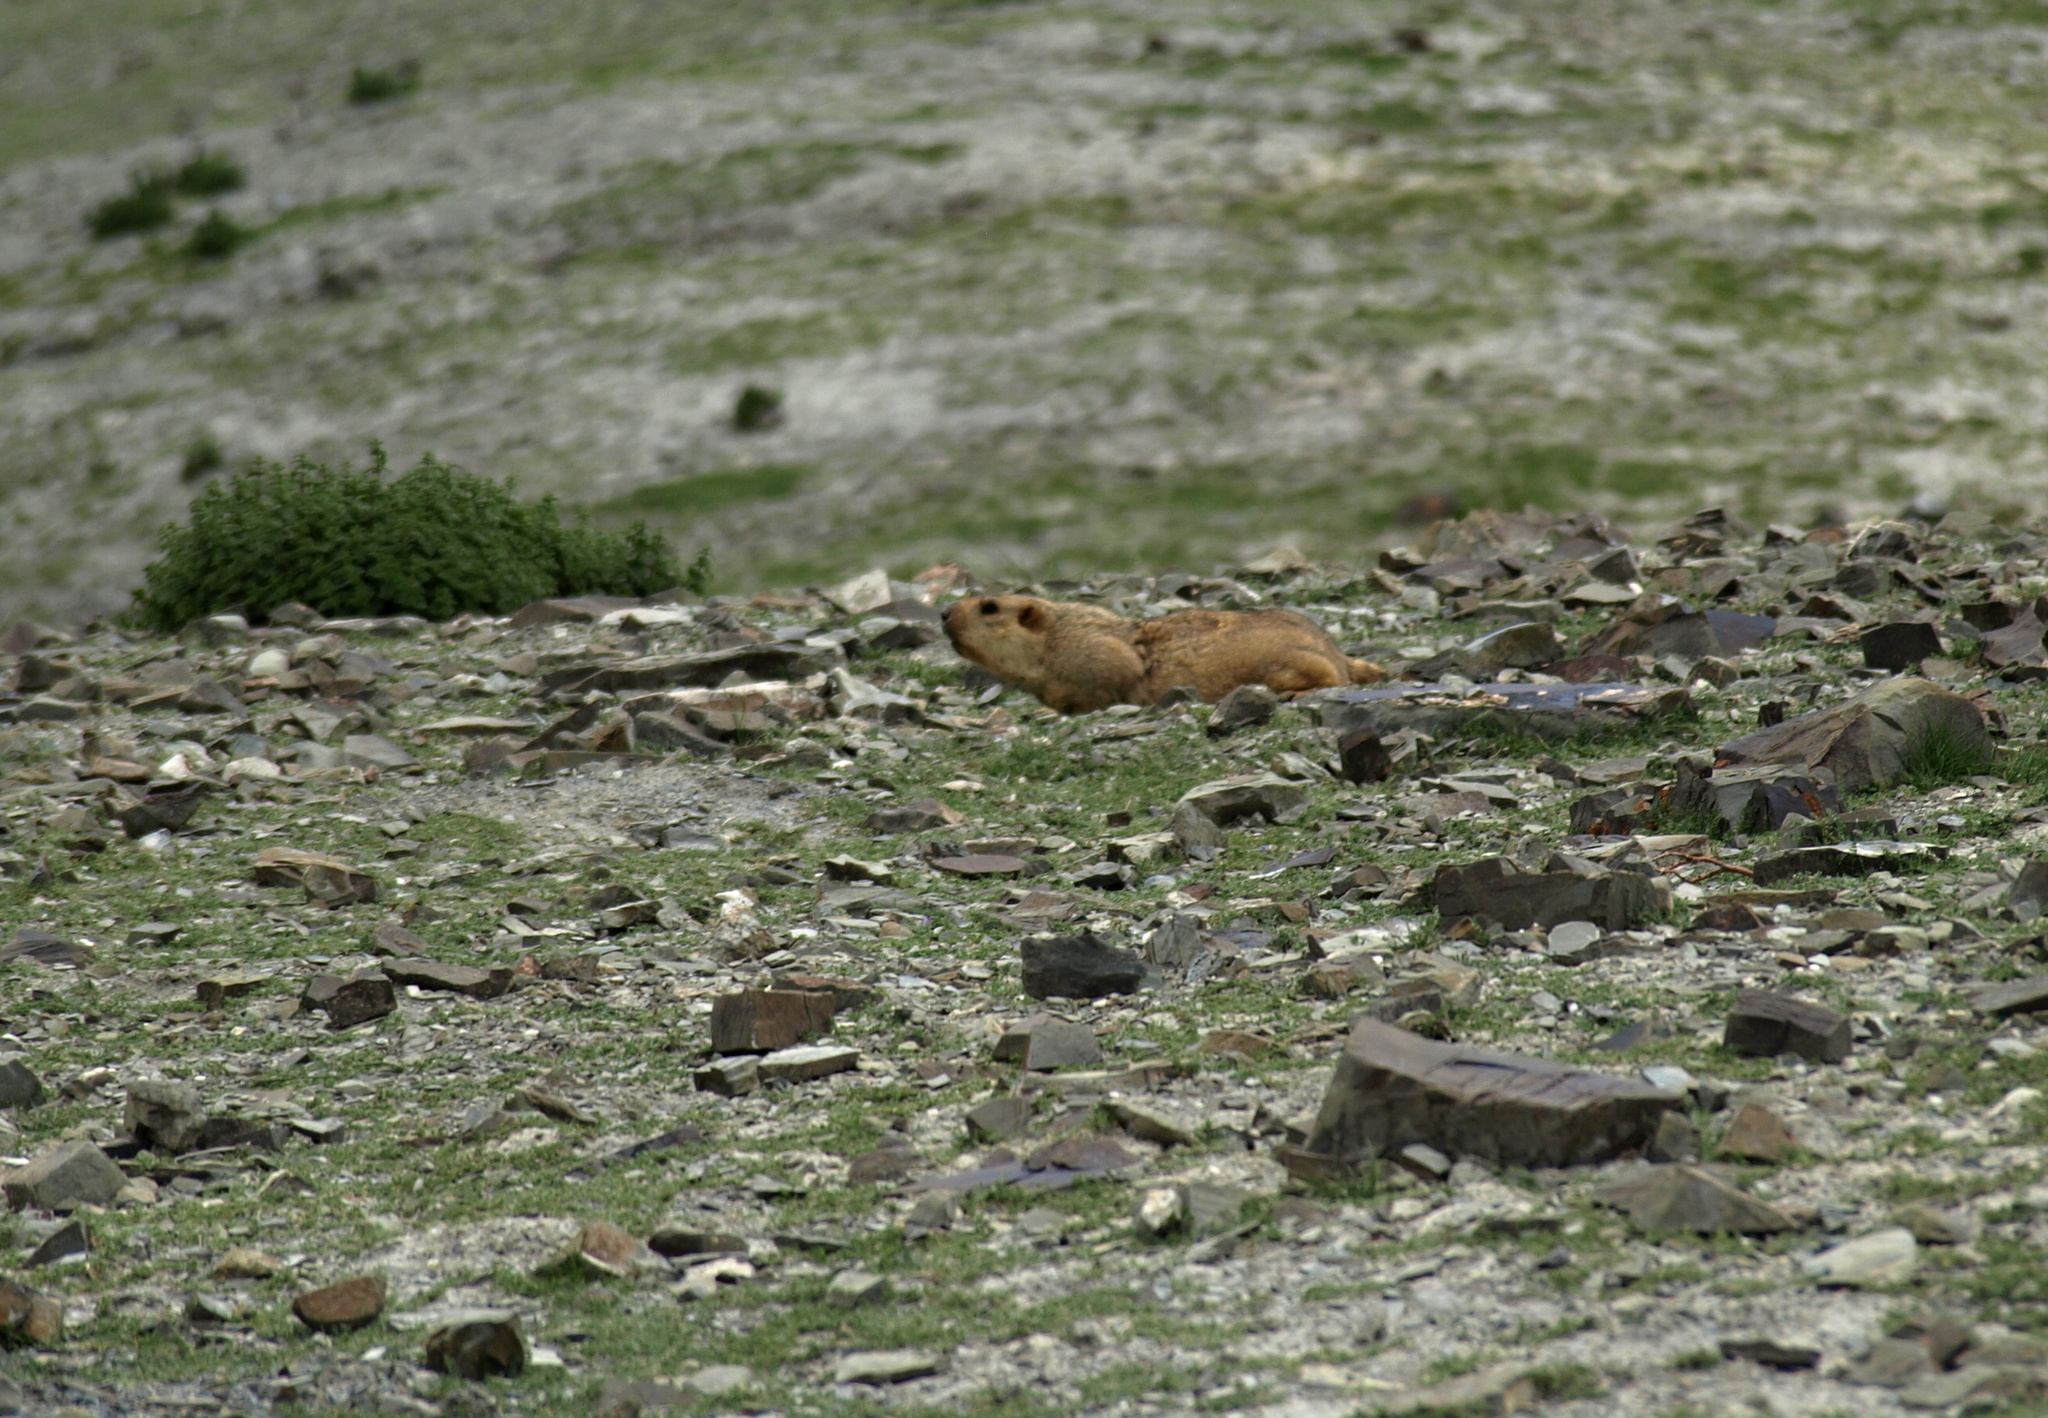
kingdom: Animalia
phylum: Chordata
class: Mammalia
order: Rodentia
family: Sciuridae
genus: Marmota
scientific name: Marmota himalayana
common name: Himalayan marmot
